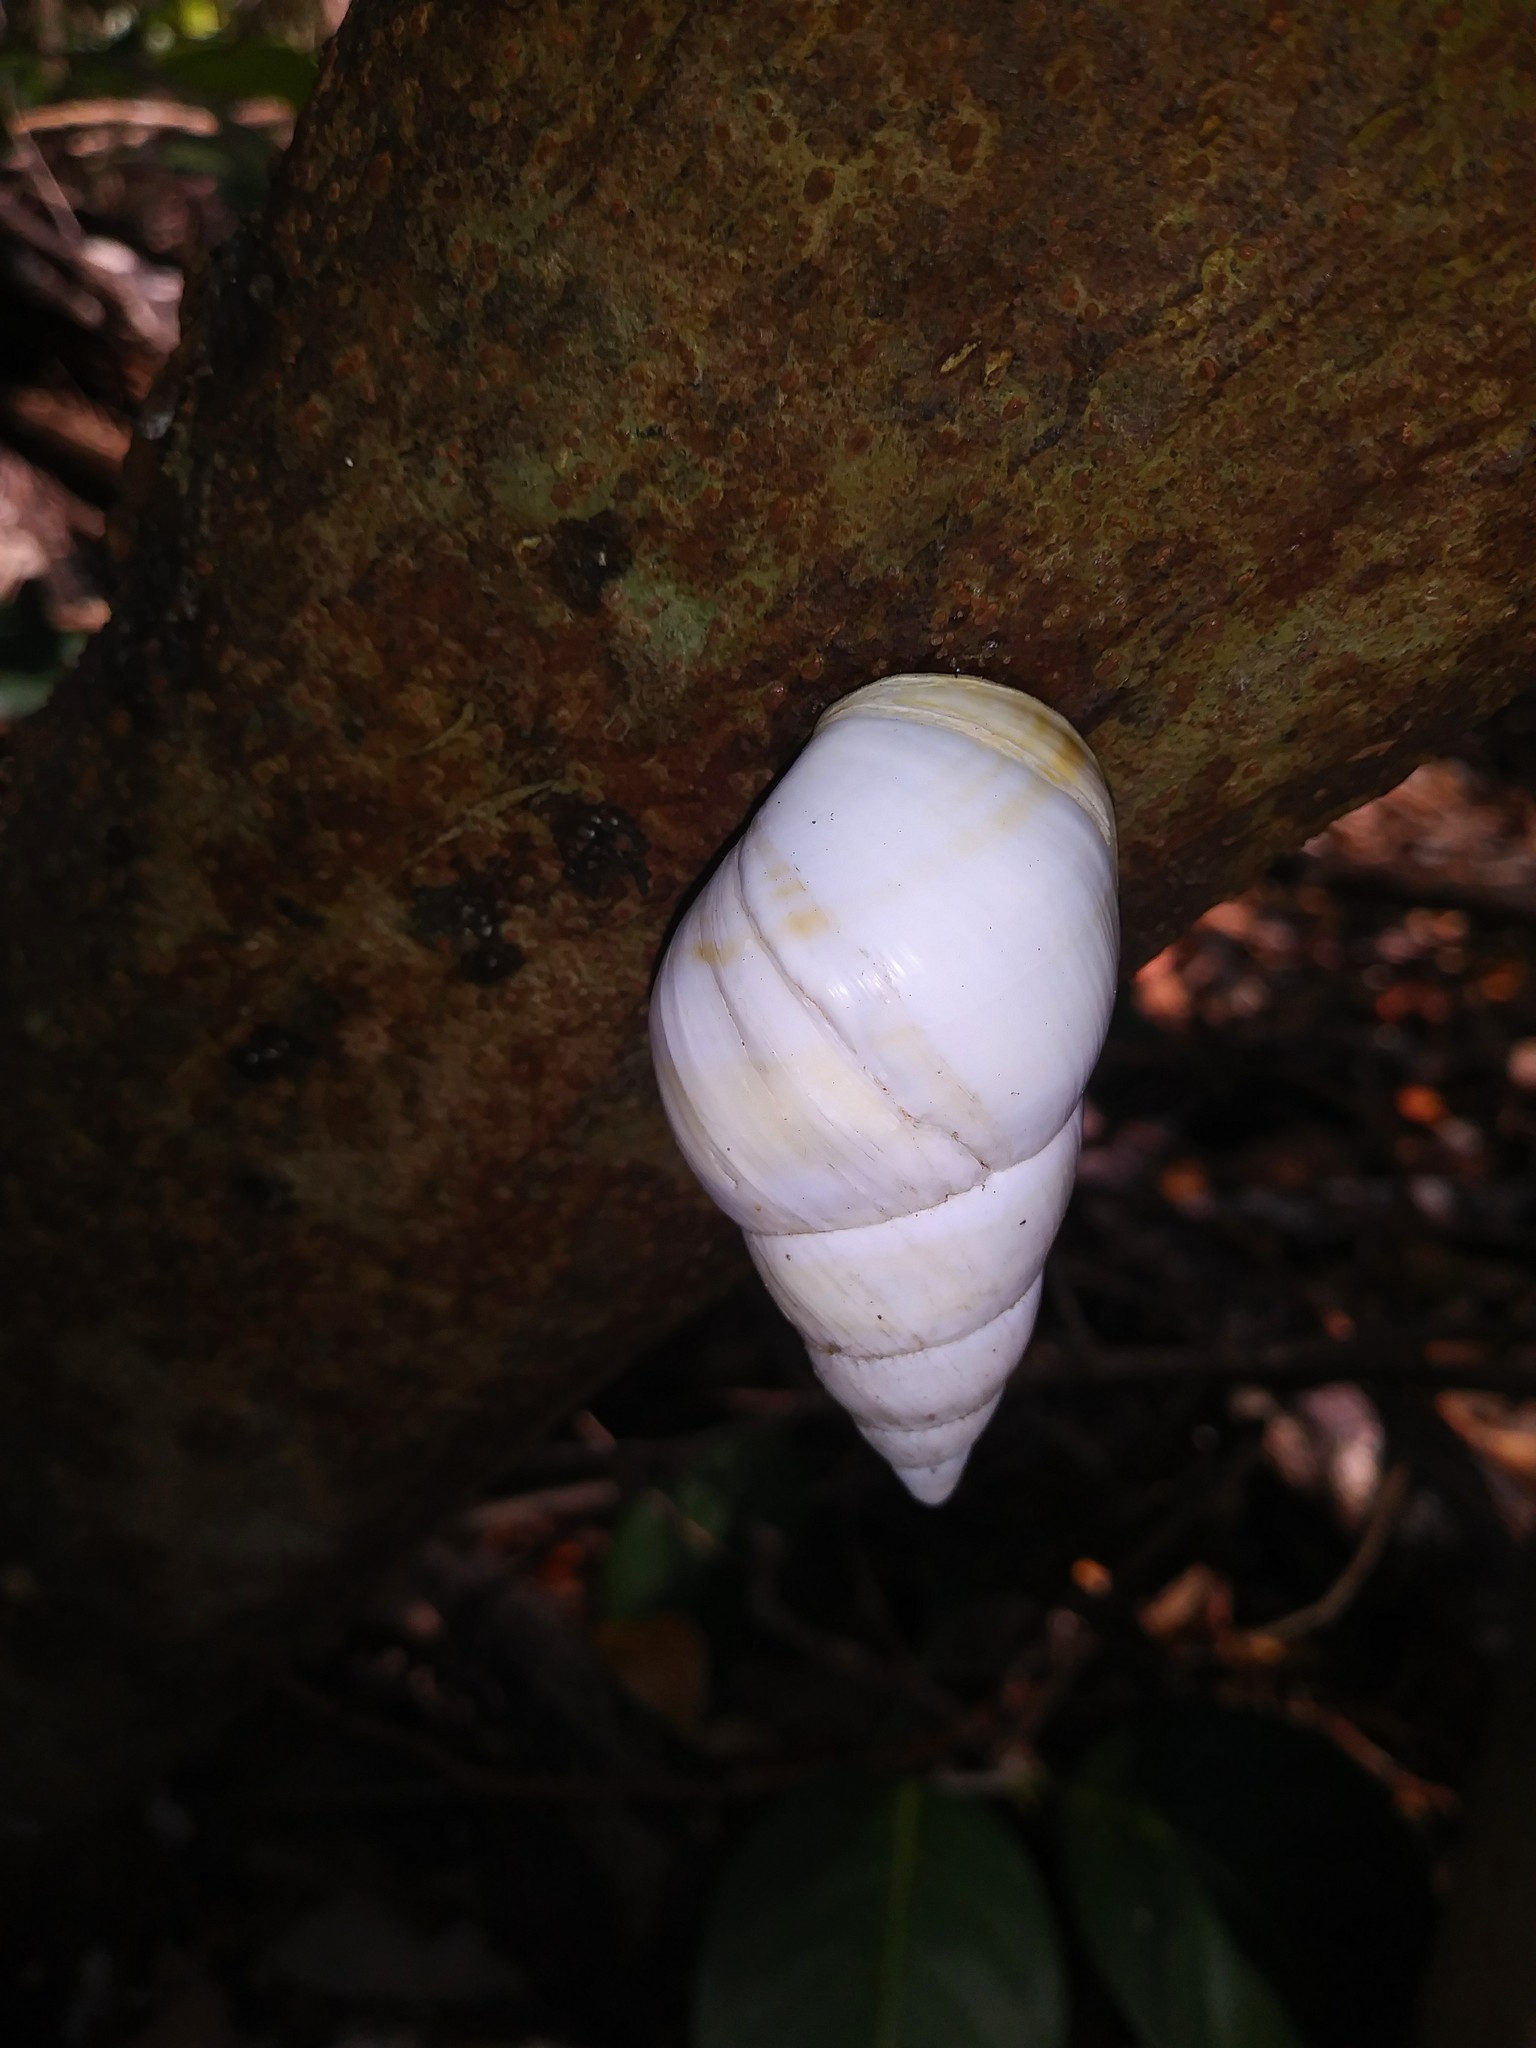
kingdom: Animalia
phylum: Mollusca
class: Gastropoda
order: Stylommatophora
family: Orthalicidae
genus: Liguus
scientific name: Liguus fasciatus
